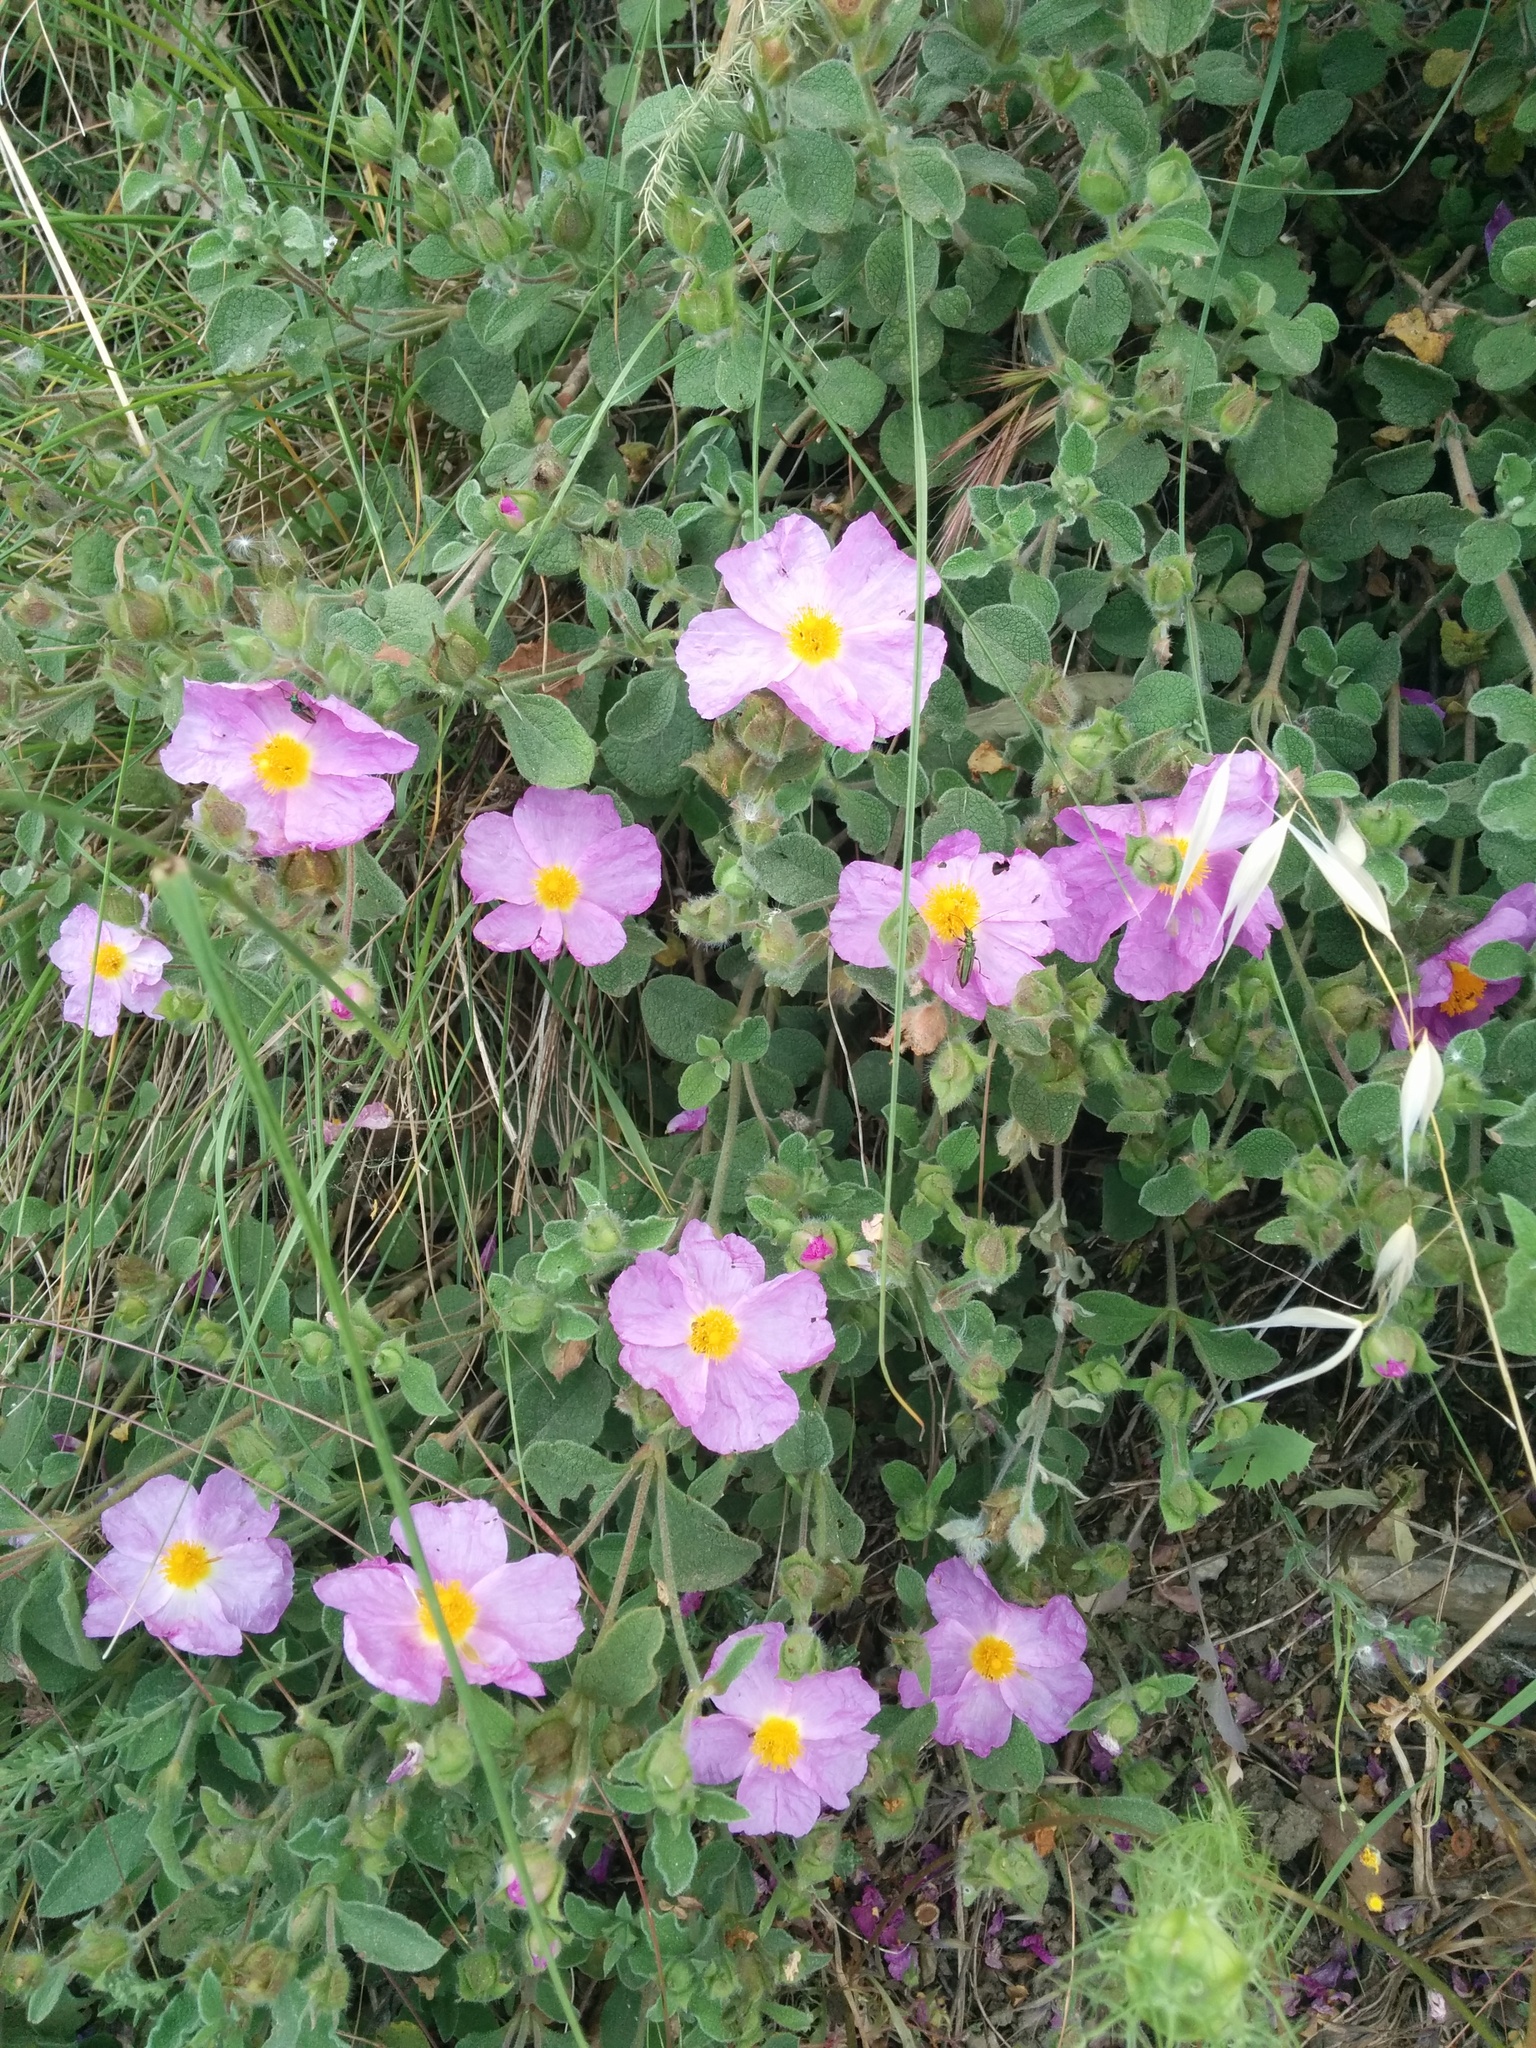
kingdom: Plantae
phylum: Tracheophyta
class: Magnoliopsida
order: Malvales
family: Cistaceae
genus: Cistus
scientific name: Cistus tauricus
